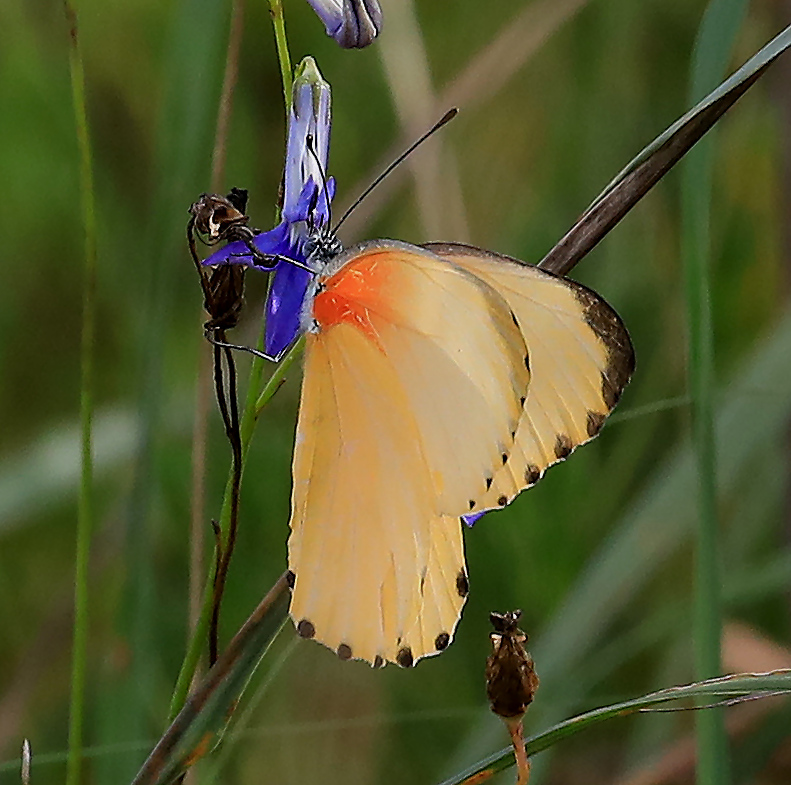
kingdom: Animalia
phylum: Arthropoda
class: Insecta
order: Lepidoptera
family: Pieridae
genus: Mylothris
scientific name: Mylothris agathina
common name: Eastern dotted border
